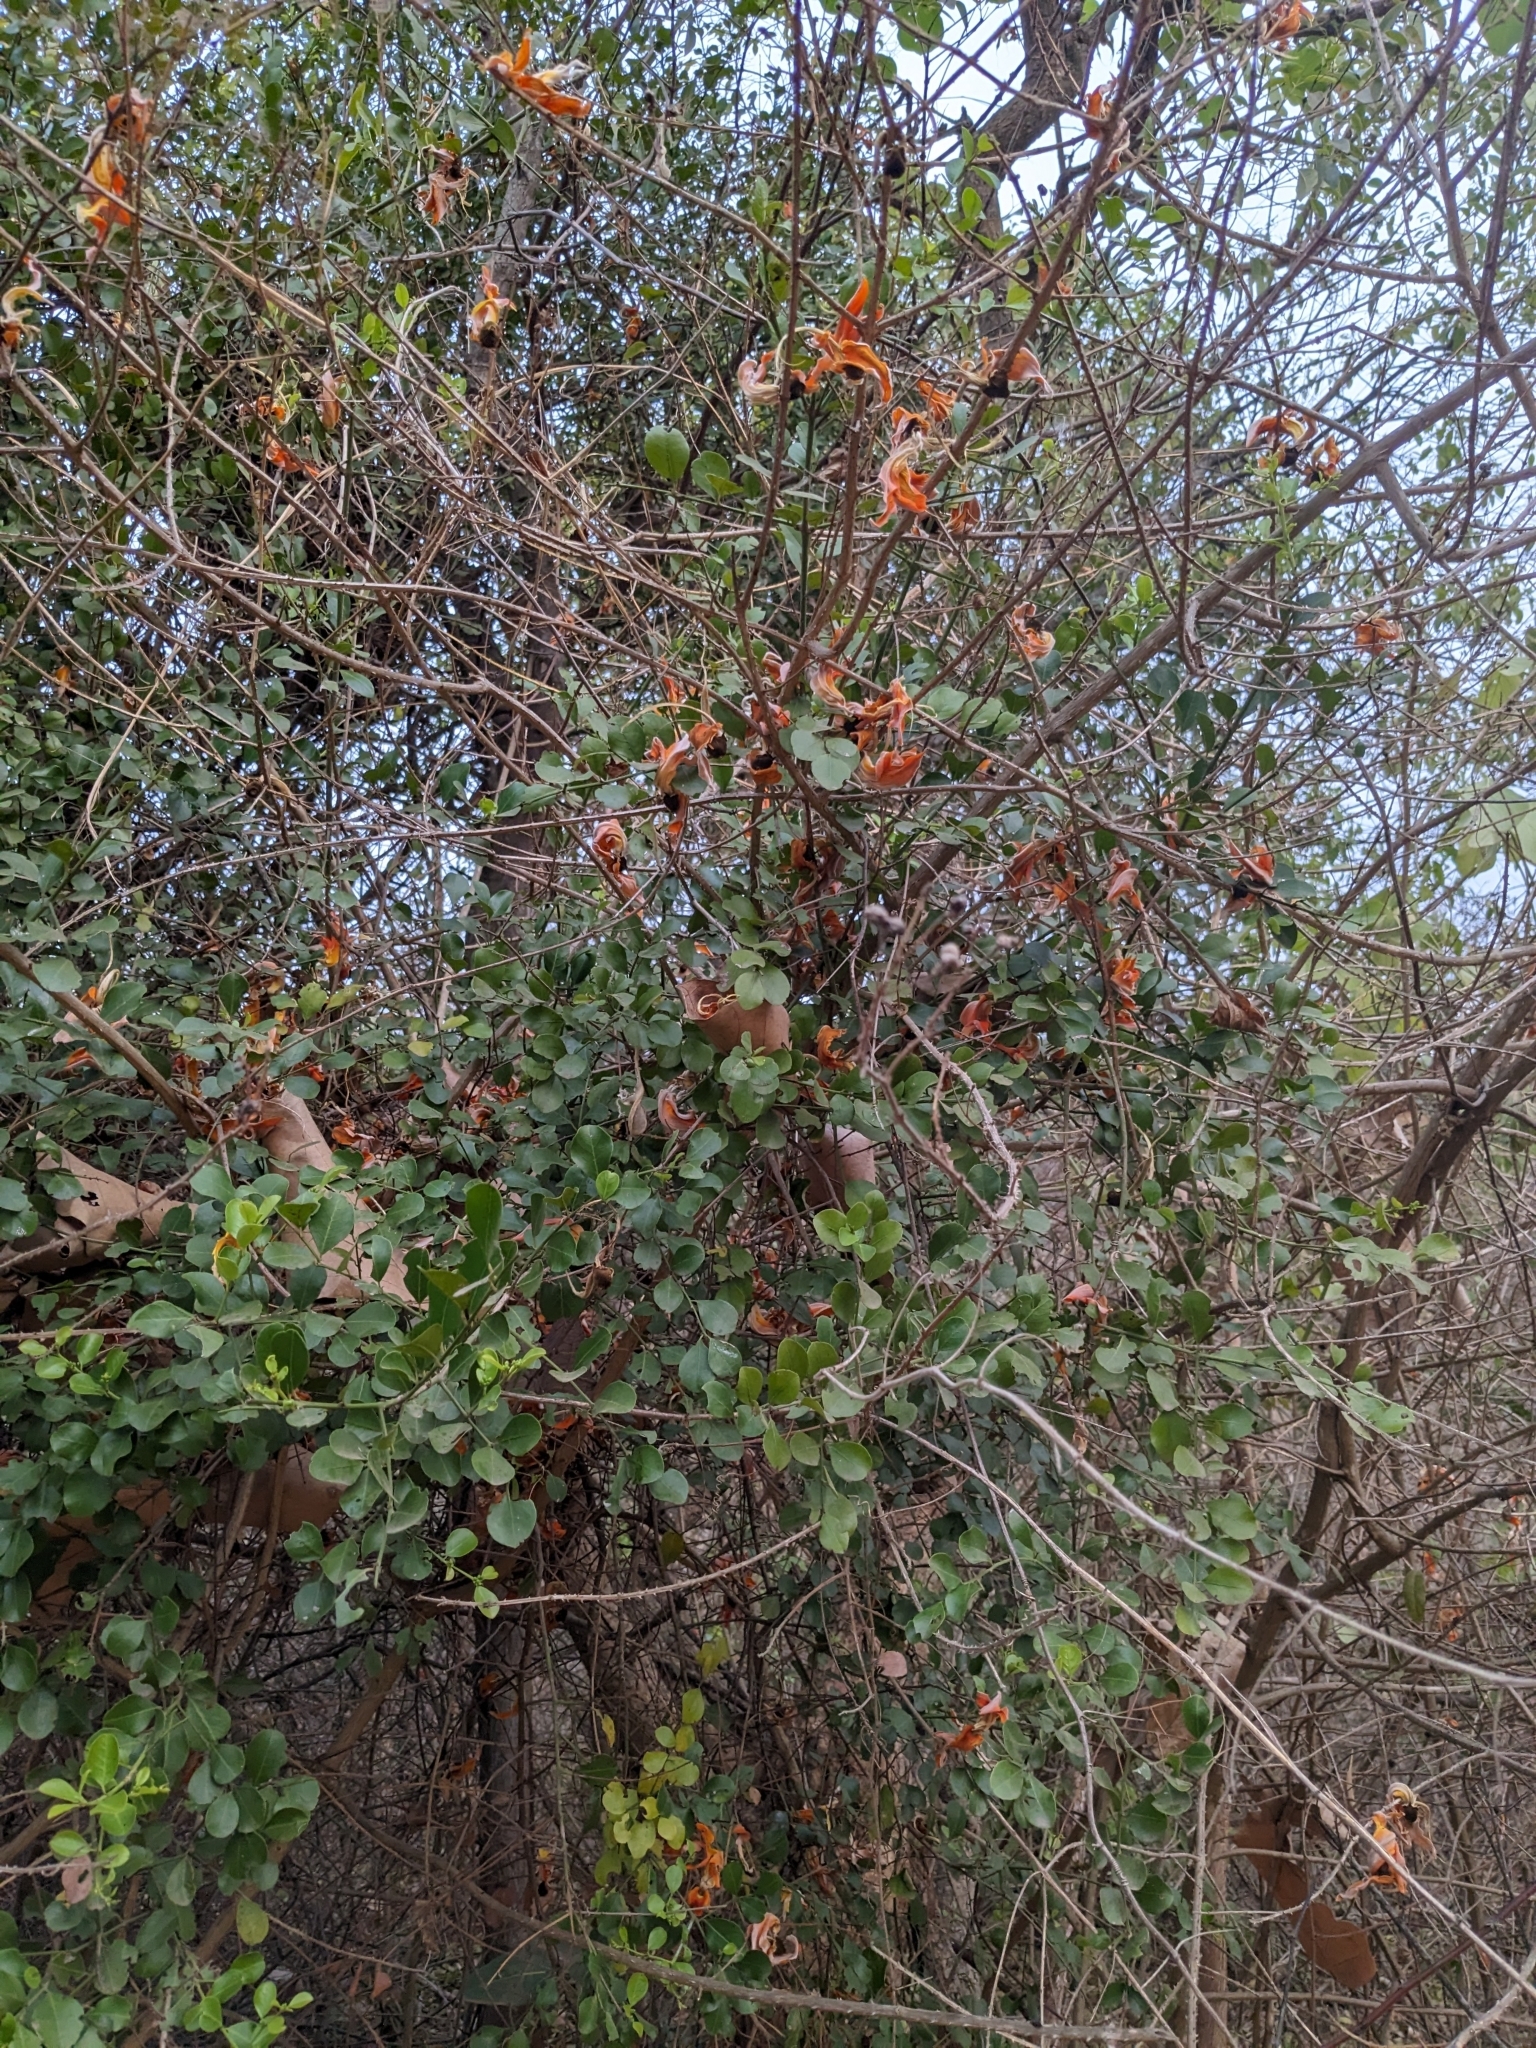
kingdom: Plantae
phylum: Tracheophyta
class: Magnoliopsida
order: Fabales
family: Fabaceae
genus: Butea
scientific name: Butea monosperma
